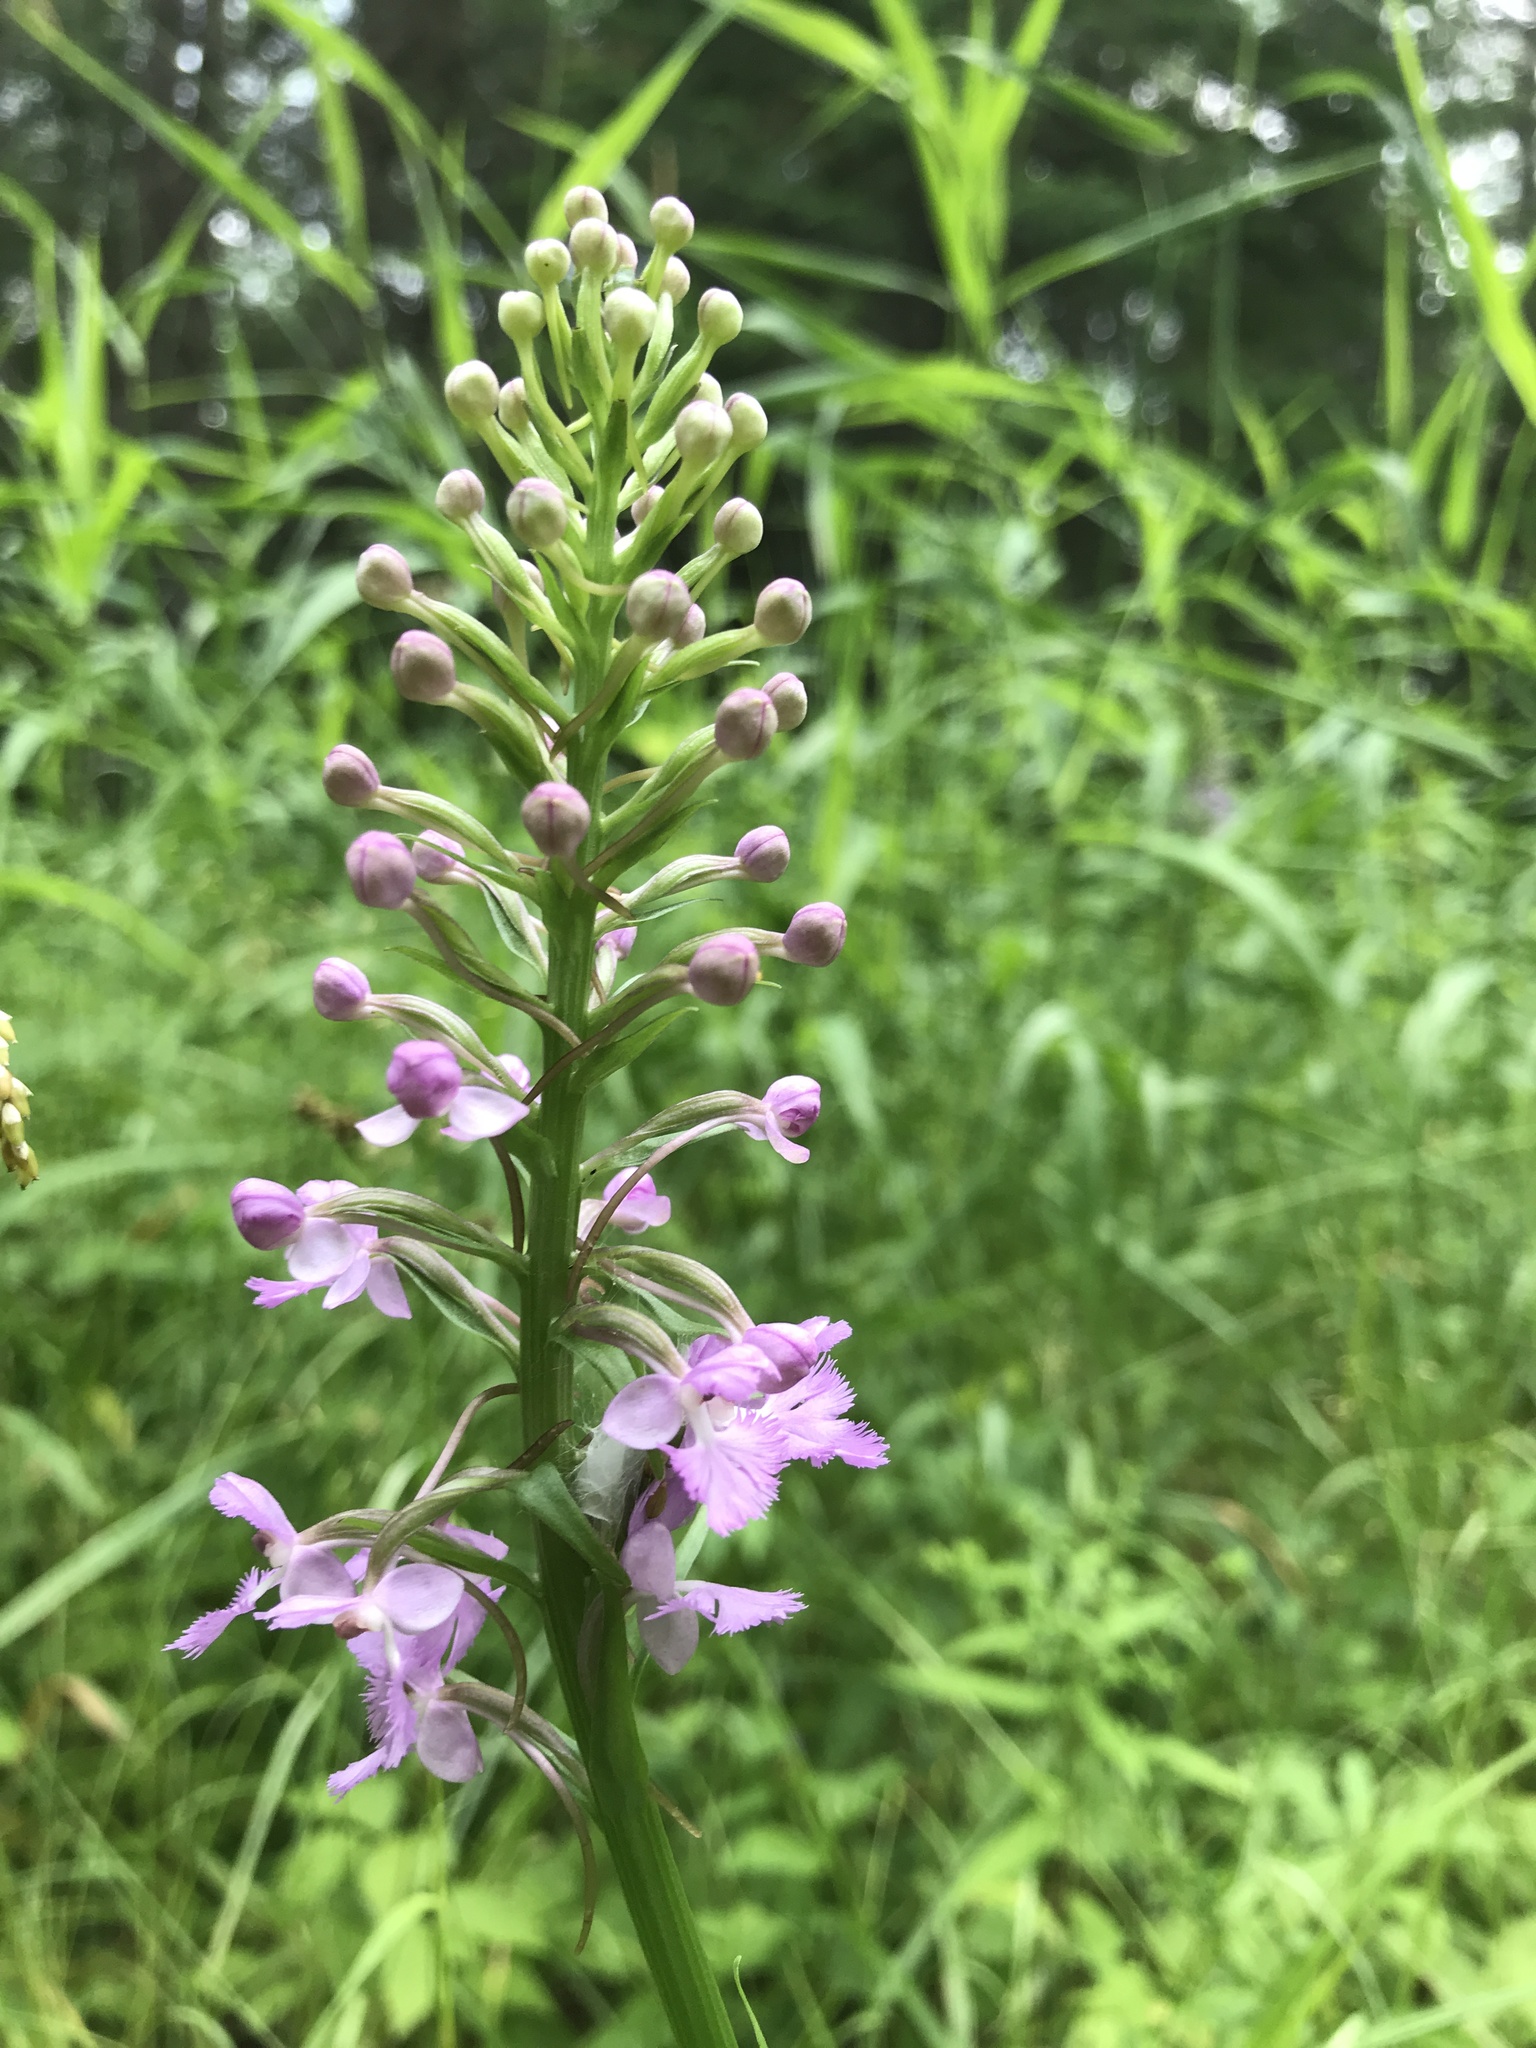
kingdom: Plantae
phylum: Tracheophyta
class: Liliopsida
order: Asparagales
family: Orchidaceae
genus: Platanthera
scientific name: Platanthera psycodes
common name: Lesser purple fringed orchid
